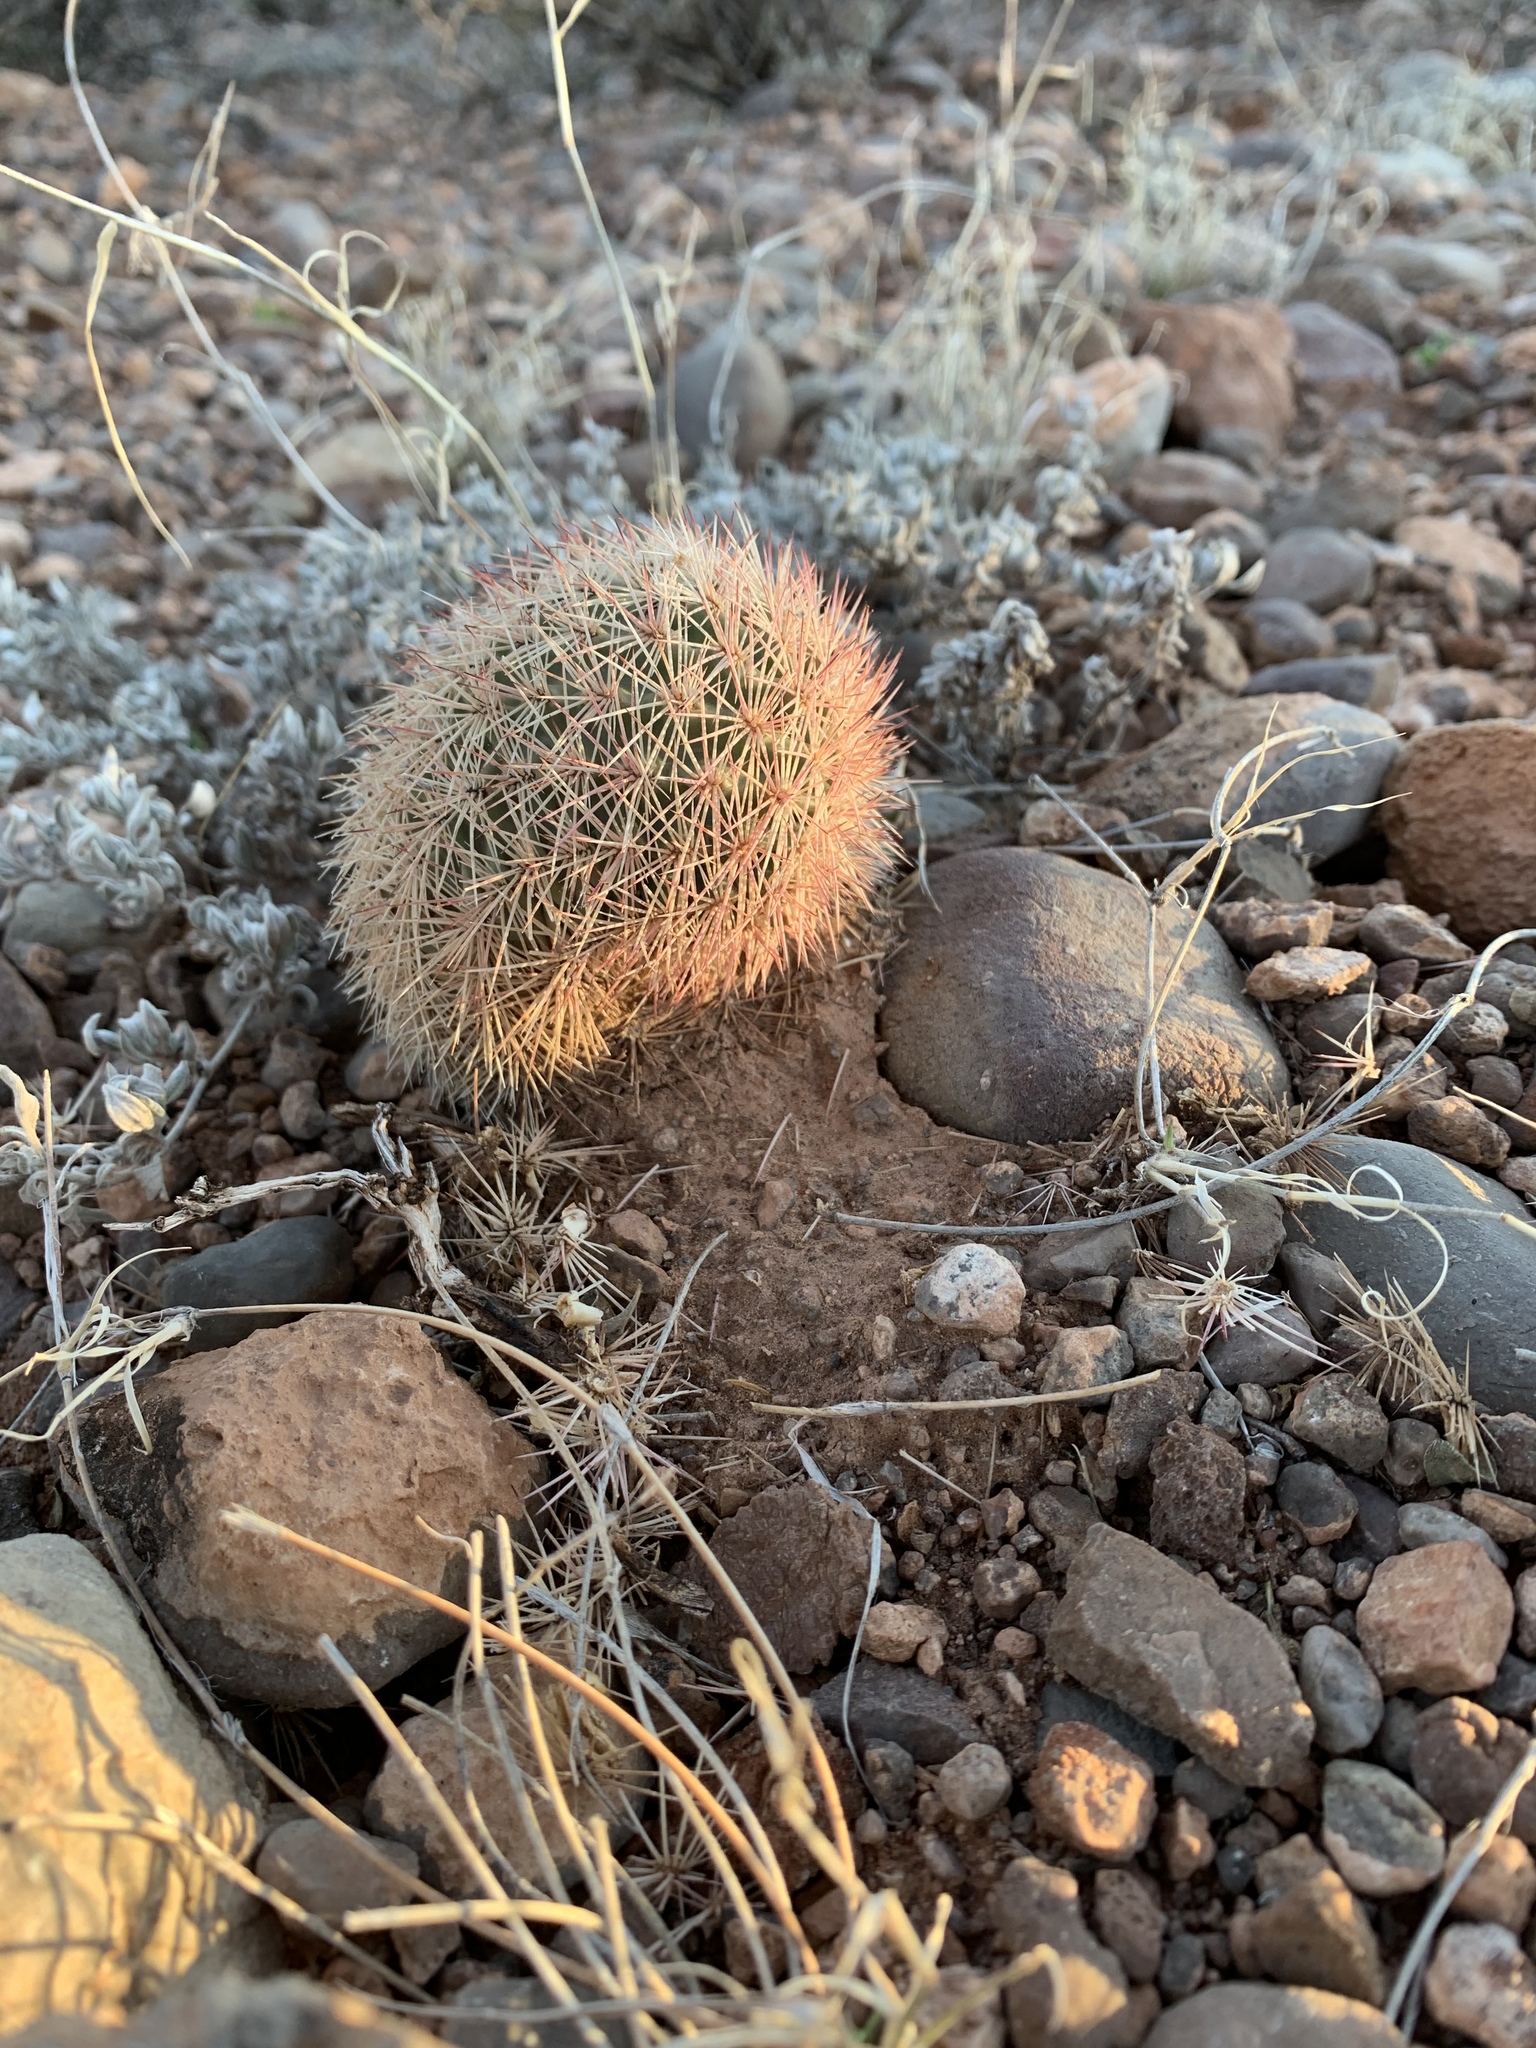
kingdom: Plantae
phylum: Tracheophyta
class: Magnoliopsida
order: Caryophyllales
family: Cactaceae
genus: Echinocereus
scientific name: Echinocereus dasyacanthus
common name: Spiny hedgehog cactus
